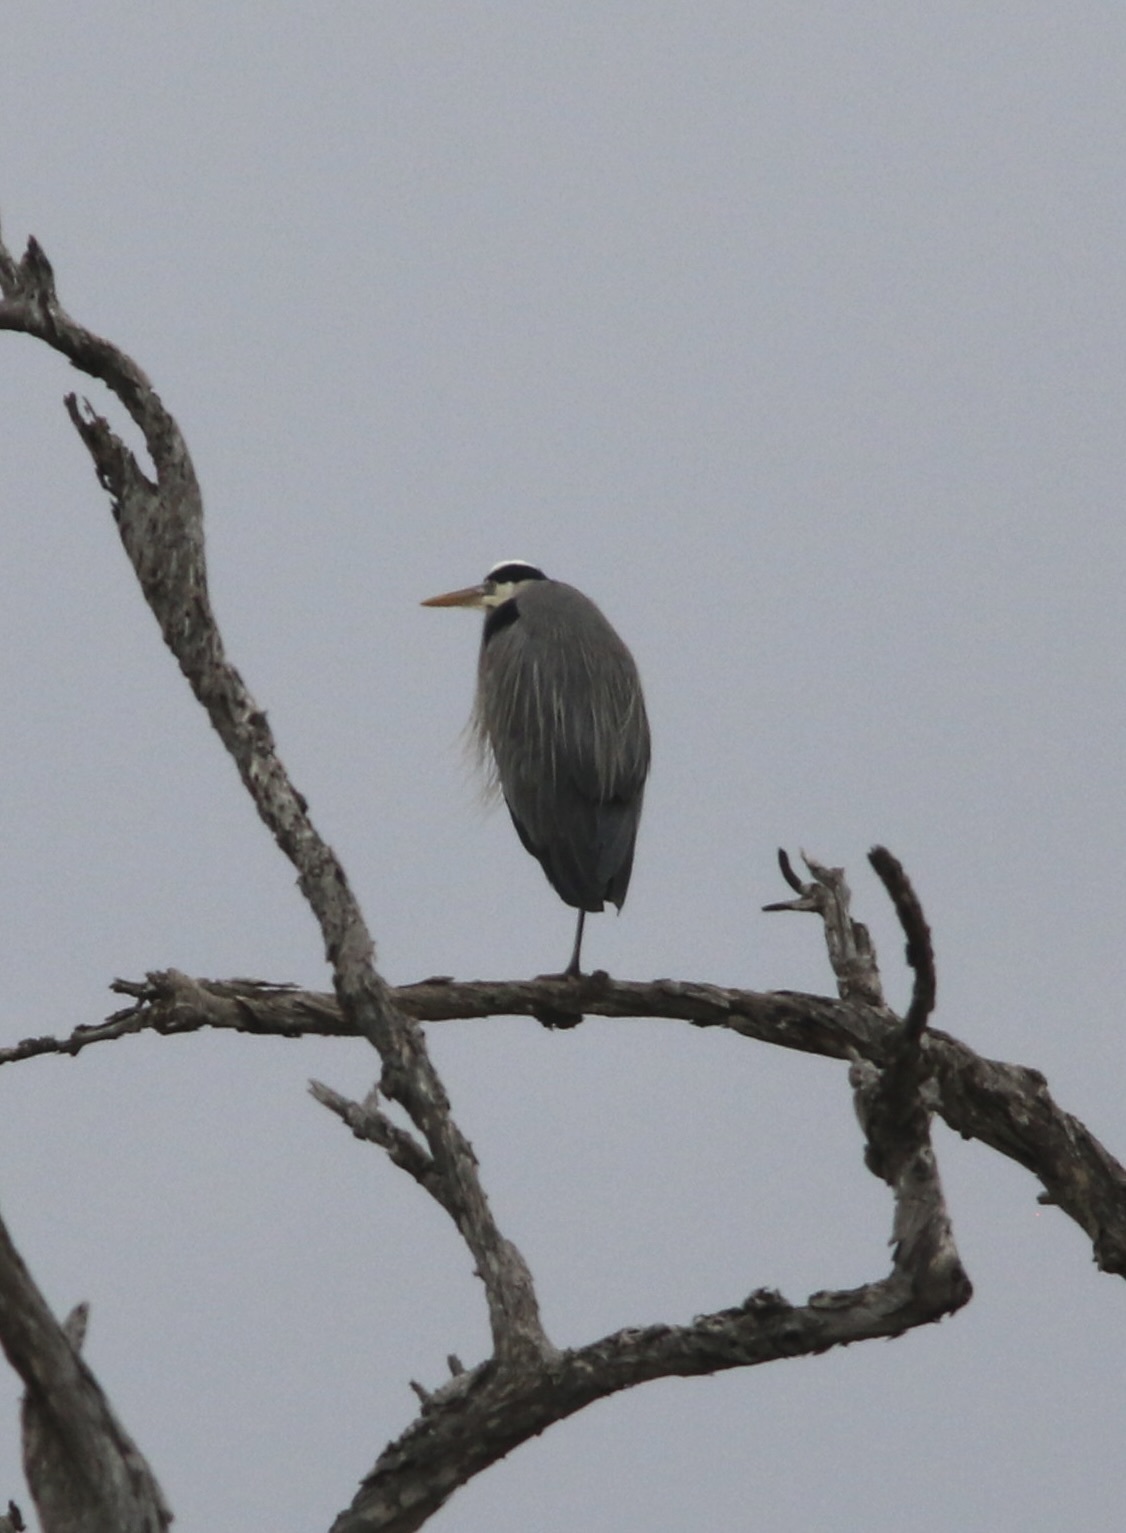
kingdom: Animalia
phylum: Chordata
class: Aves
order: Pelecaniformes
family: Ardeidae
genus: Ardea
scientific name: Ardea herodias
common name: Great blue heron
